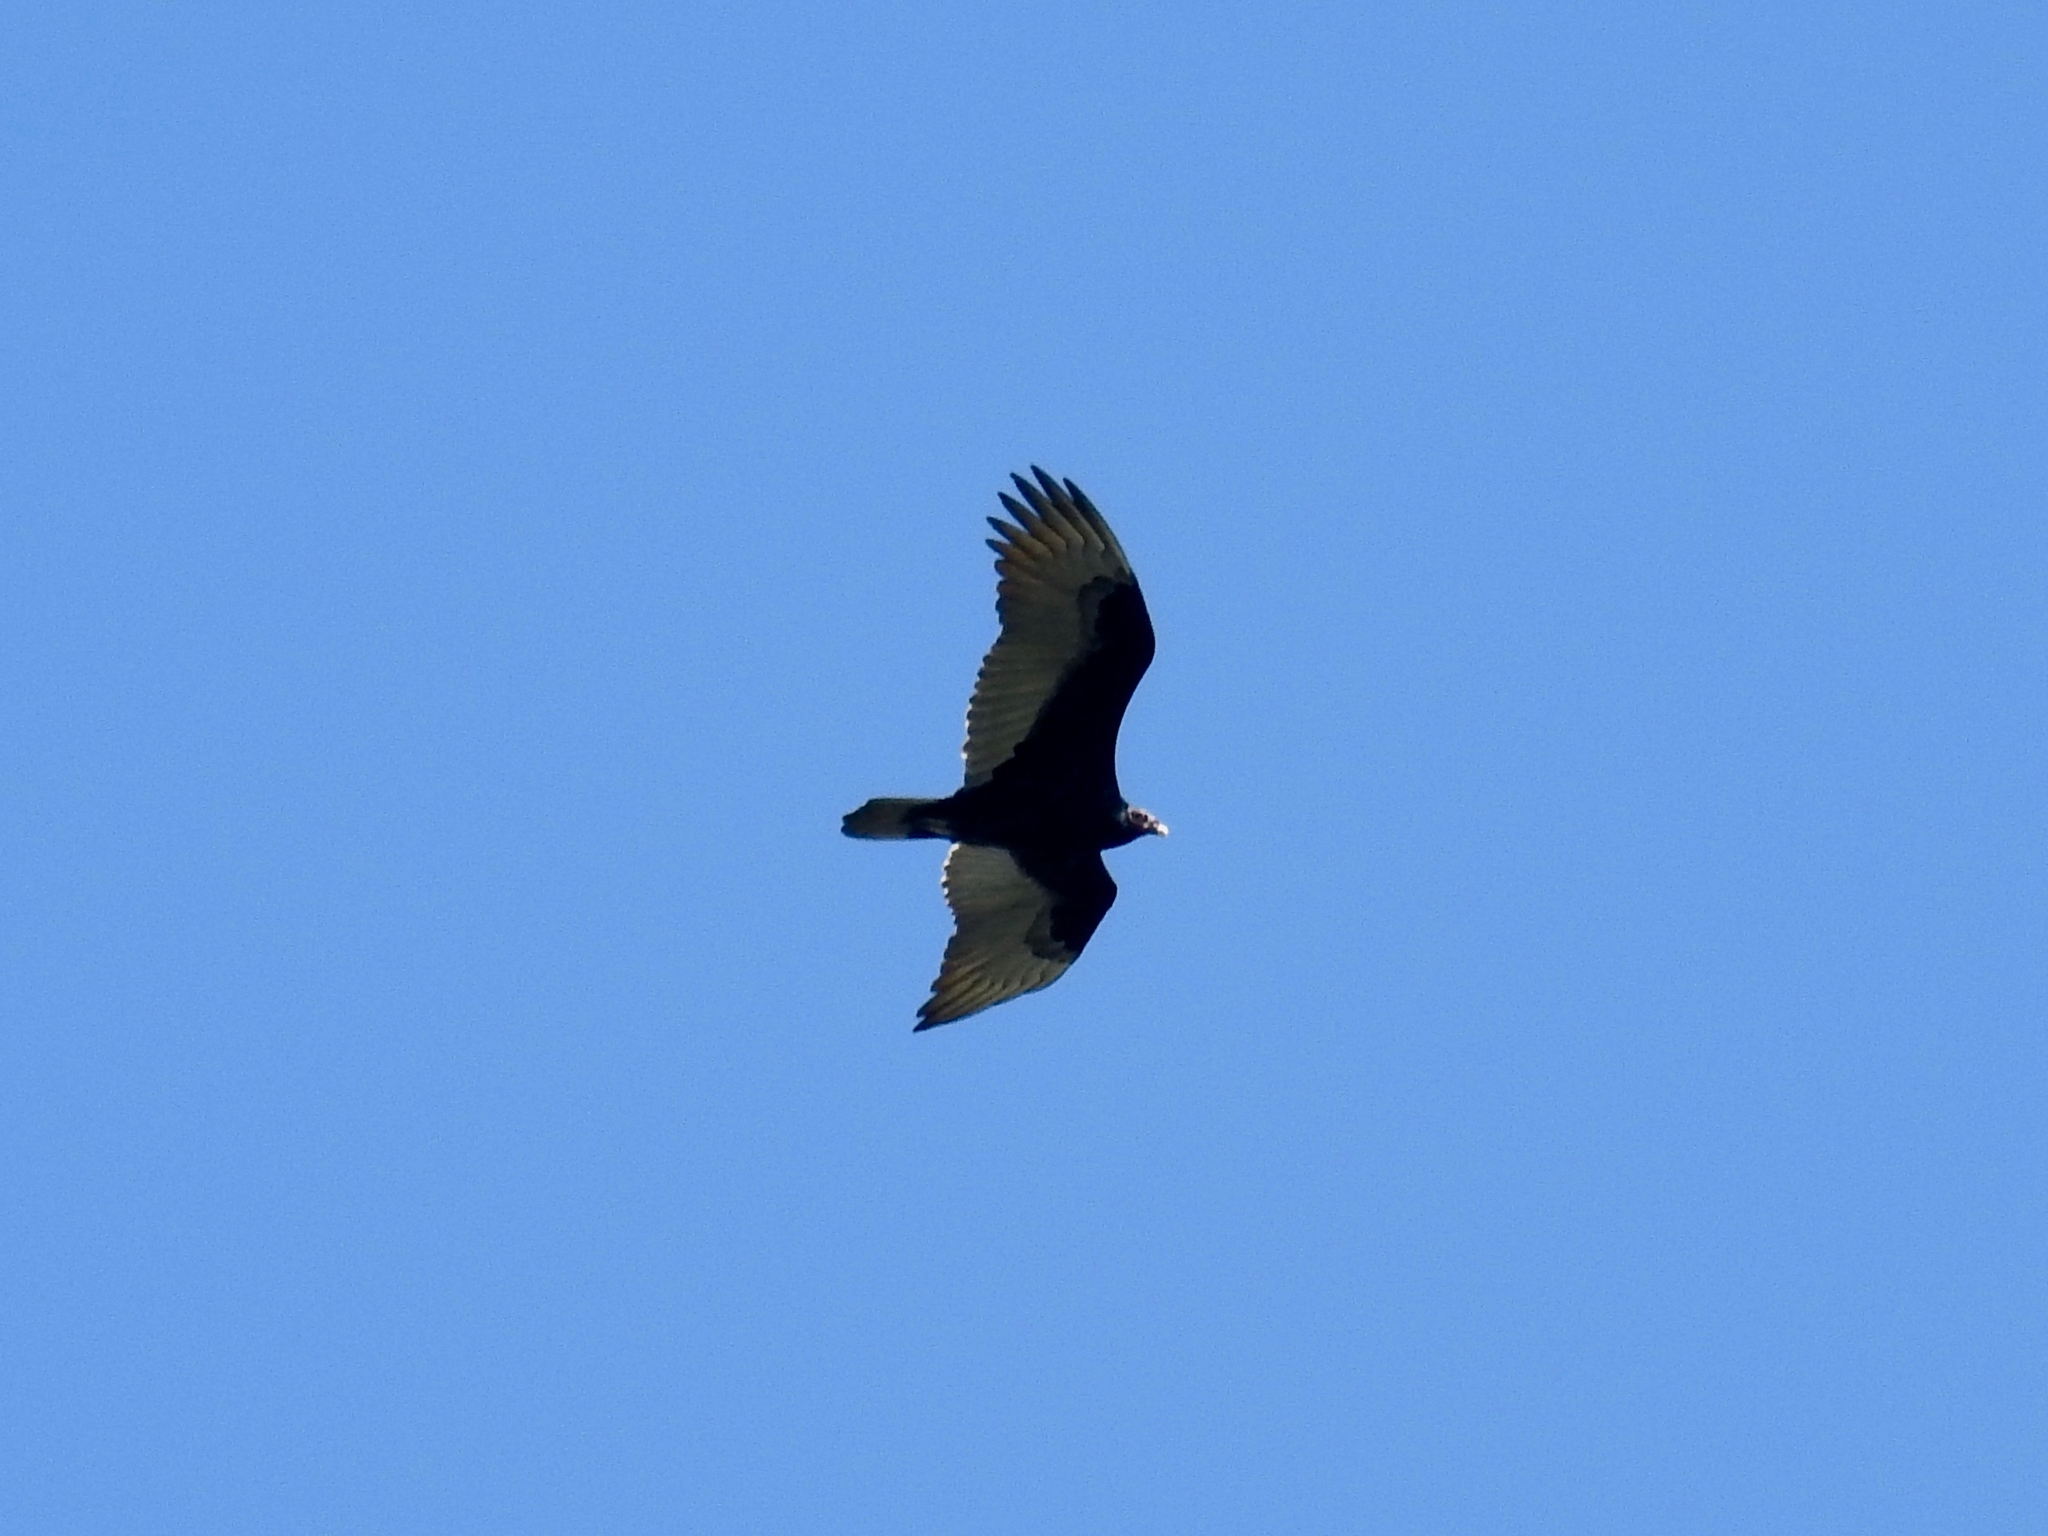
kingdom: Animalia
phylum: Chordata
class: Aves
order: Accipitriformes
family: Cathartidae
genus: Cathartes
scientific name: Cathartes aura
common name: Turkey vulture
